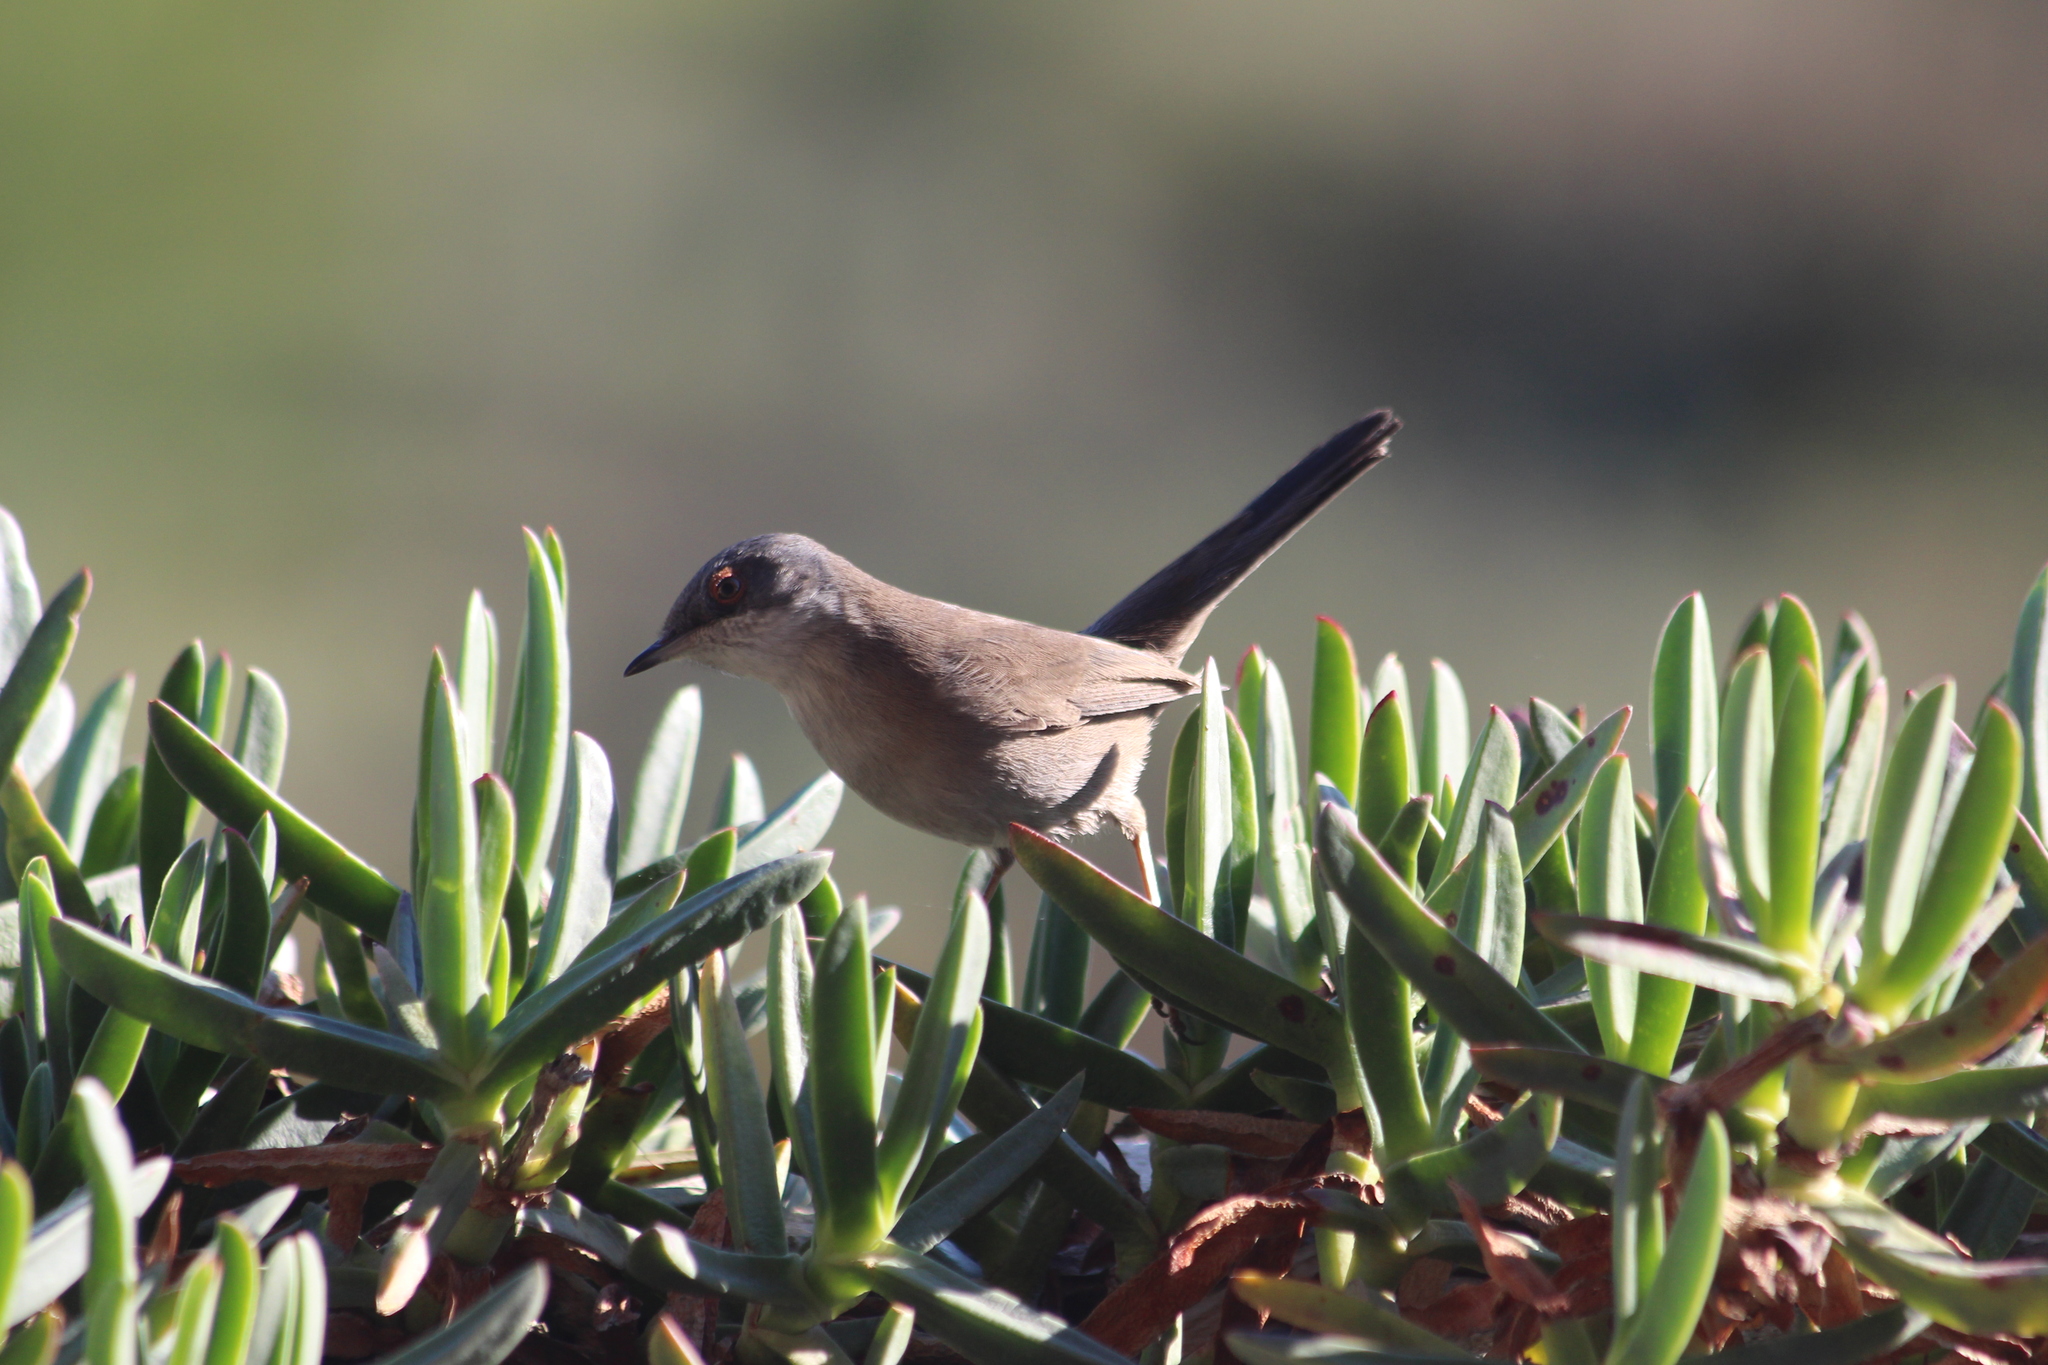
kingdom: Animalia
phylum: Chordata
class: Aves
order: Passeriformes
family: Sylviidae
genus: Curruca
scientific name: Curruca melanocephala
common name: Sardinian warbler
